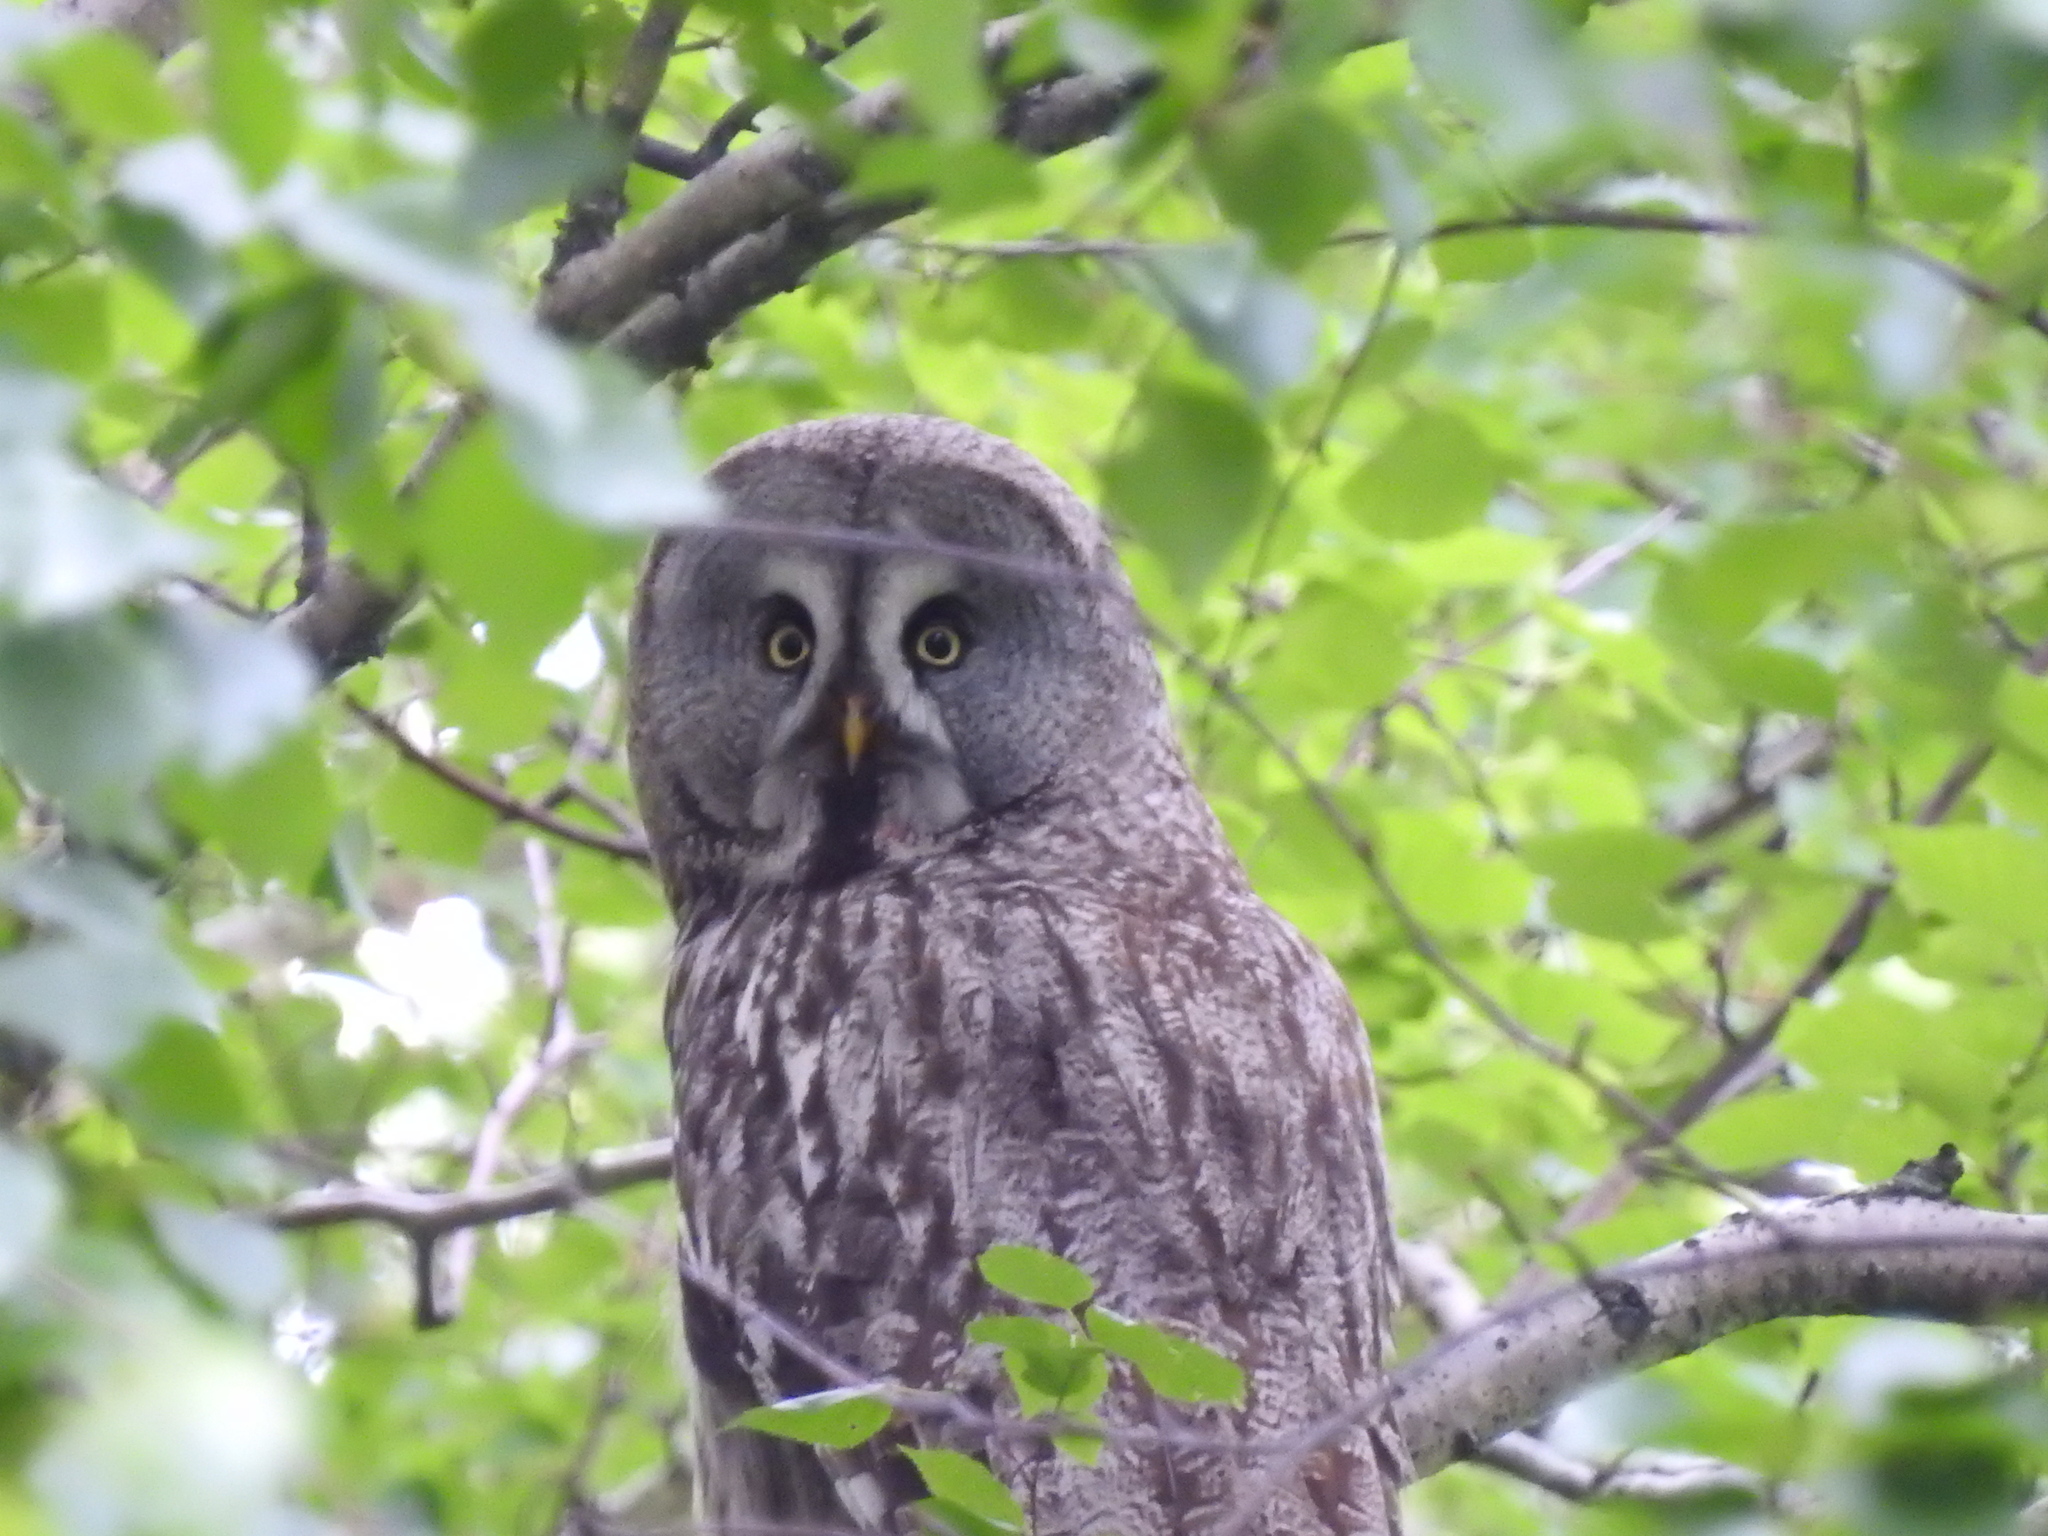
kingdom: Animalia
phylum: Chordata
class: Aves
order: Strigiformes
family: Strigidae
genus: Strix
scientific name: Strix nebulosa
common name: Great grey owl
